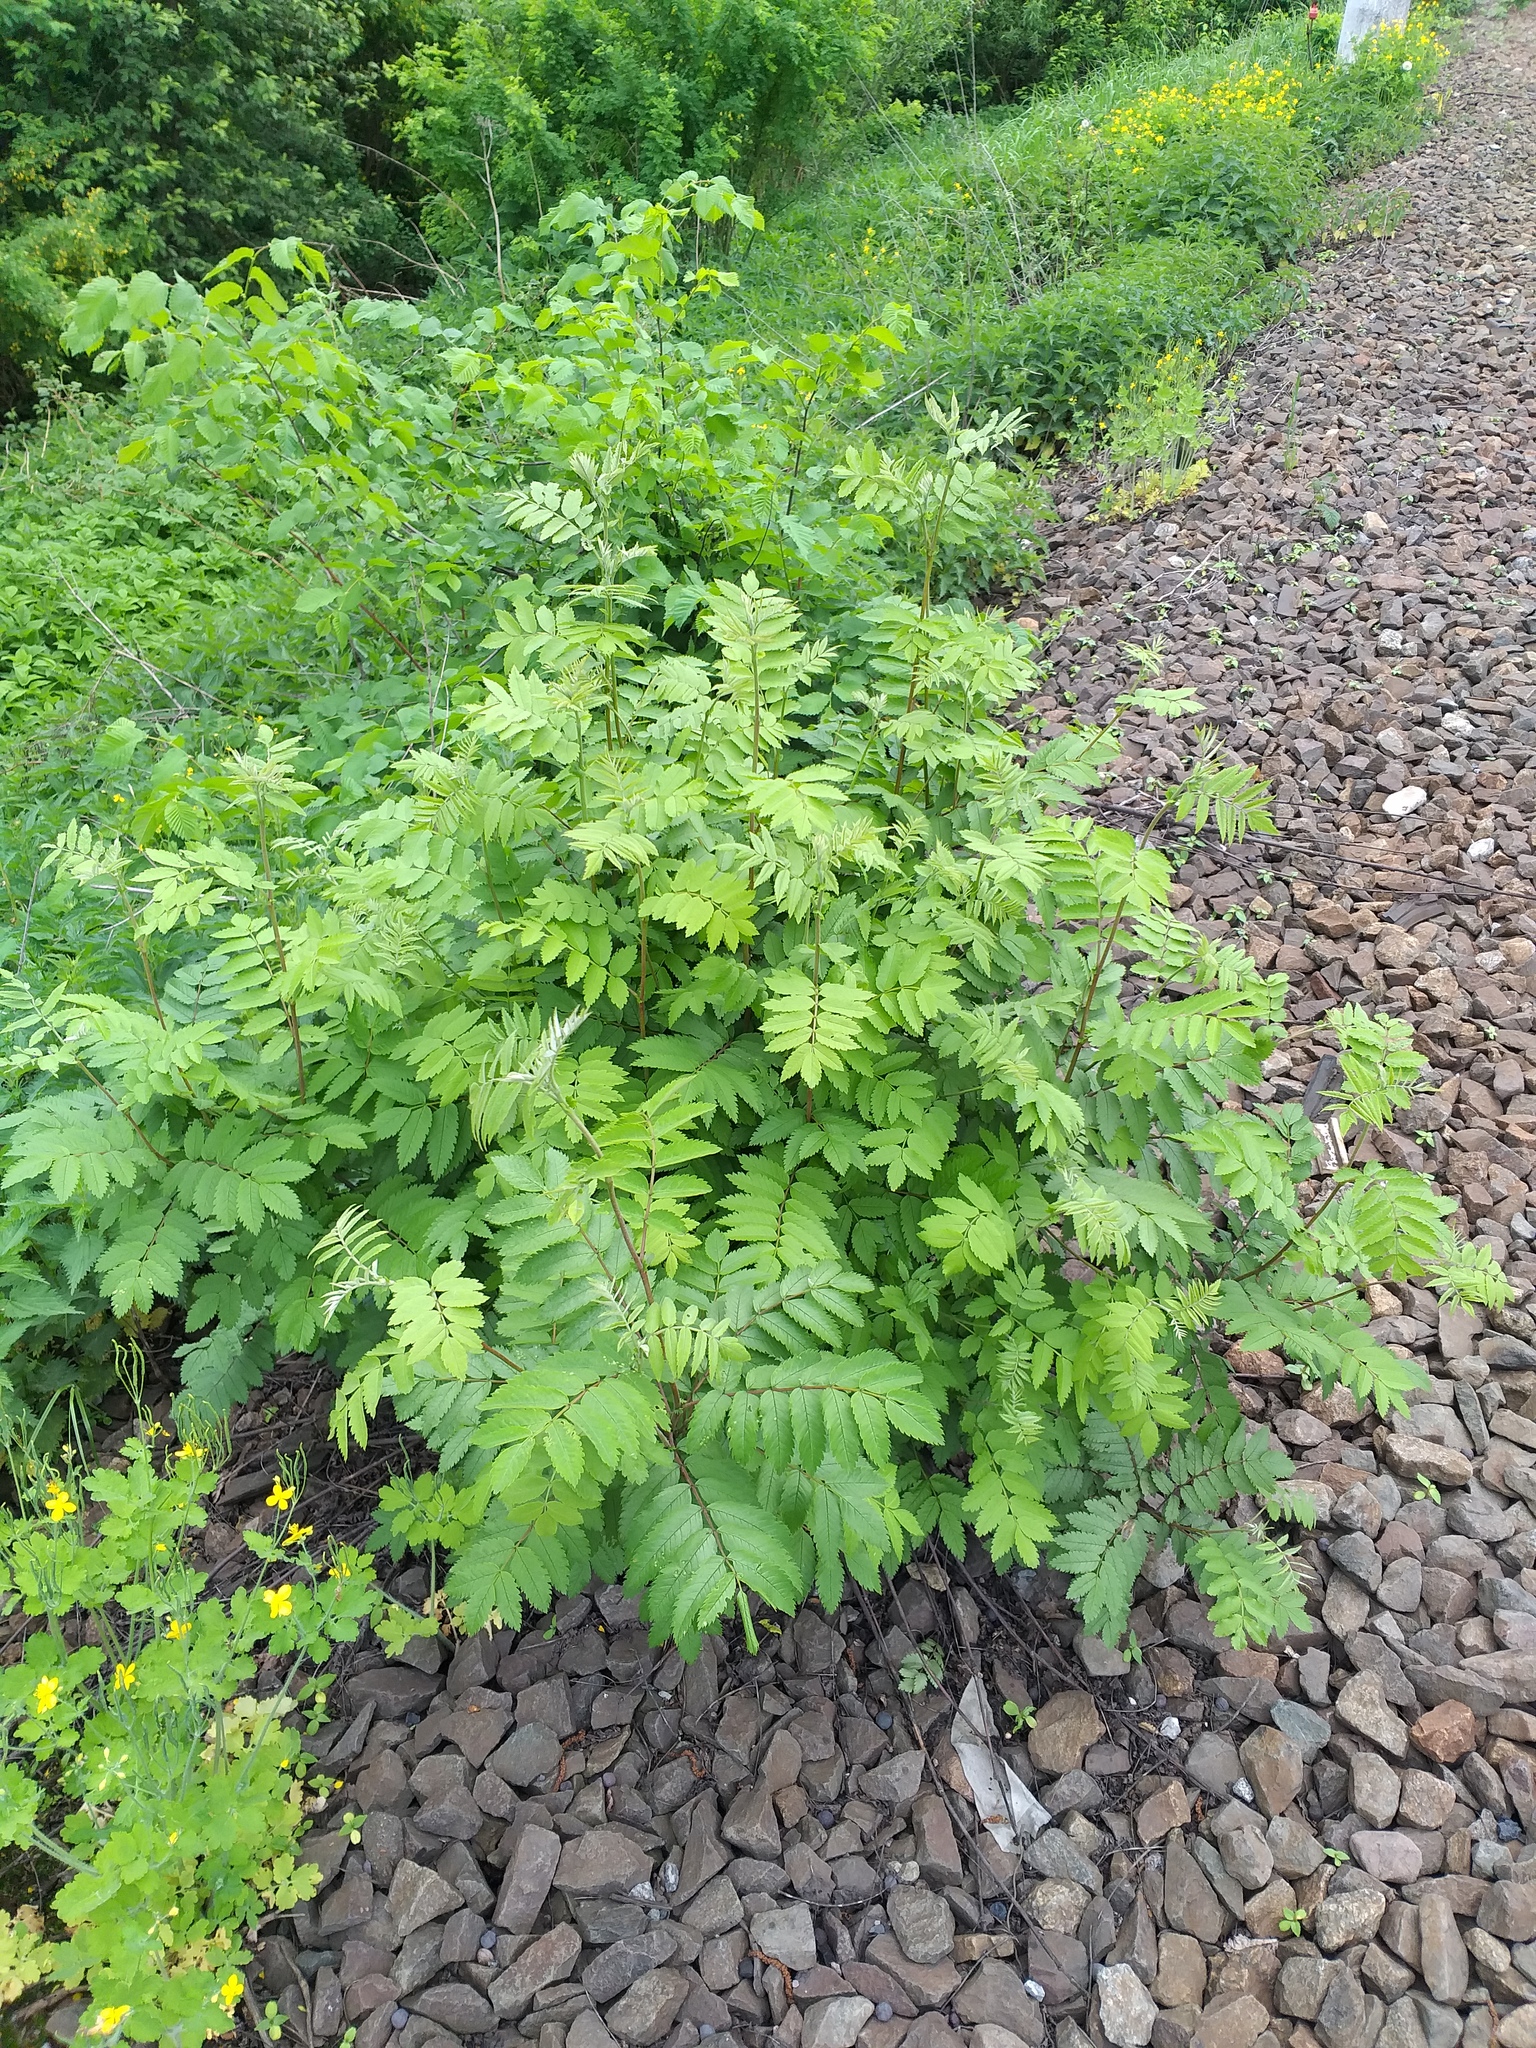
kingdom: Plantae
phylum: Tracheophyta
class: Magnoliopsida
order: Rosales
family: Rosaceae
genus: Sorbus
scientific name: Sorbus aucuparia
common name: Rowan
